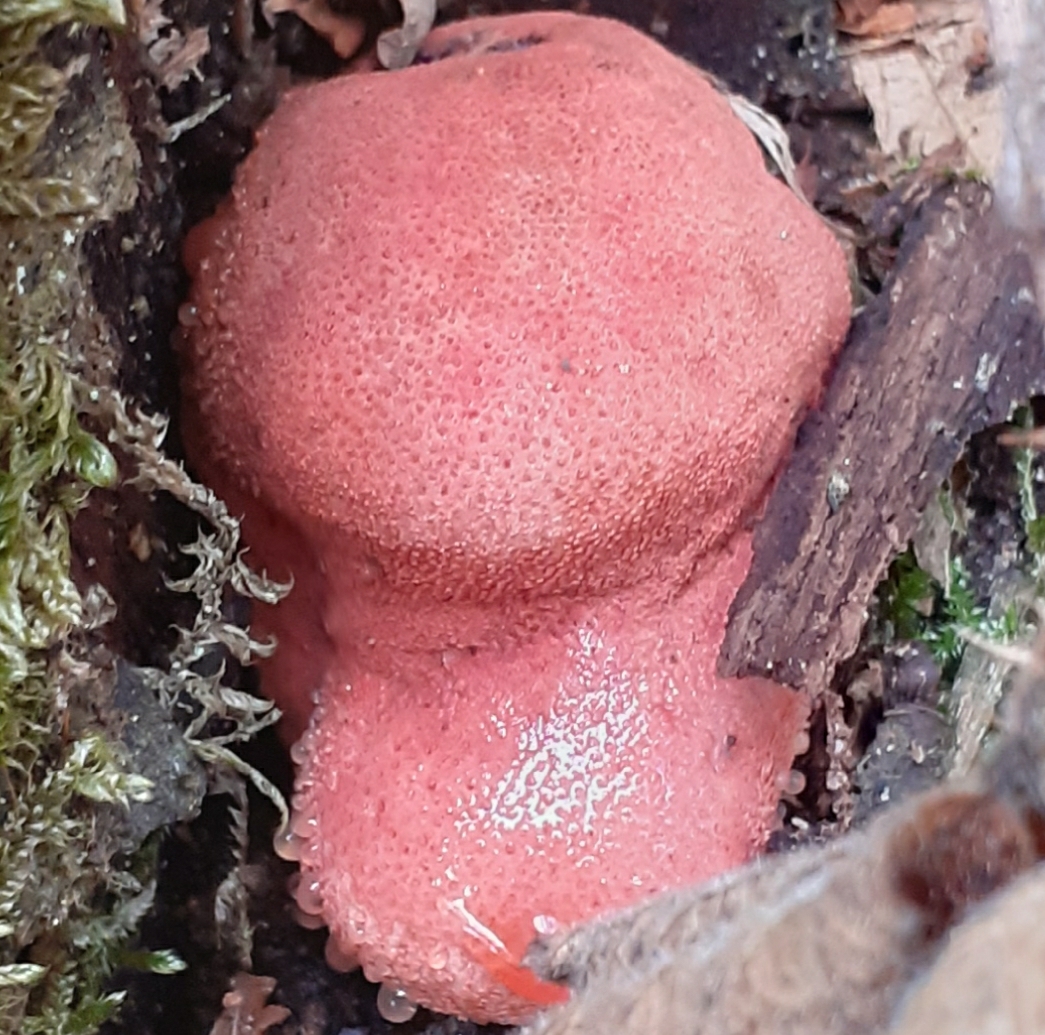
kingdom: Fungi
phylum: Basidiomycota
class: Agaricomycetes
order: Agaricales
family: Fistulinaceae
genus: Fistulina
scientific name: Fistulina hepatica
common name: Beef-steak fungus
